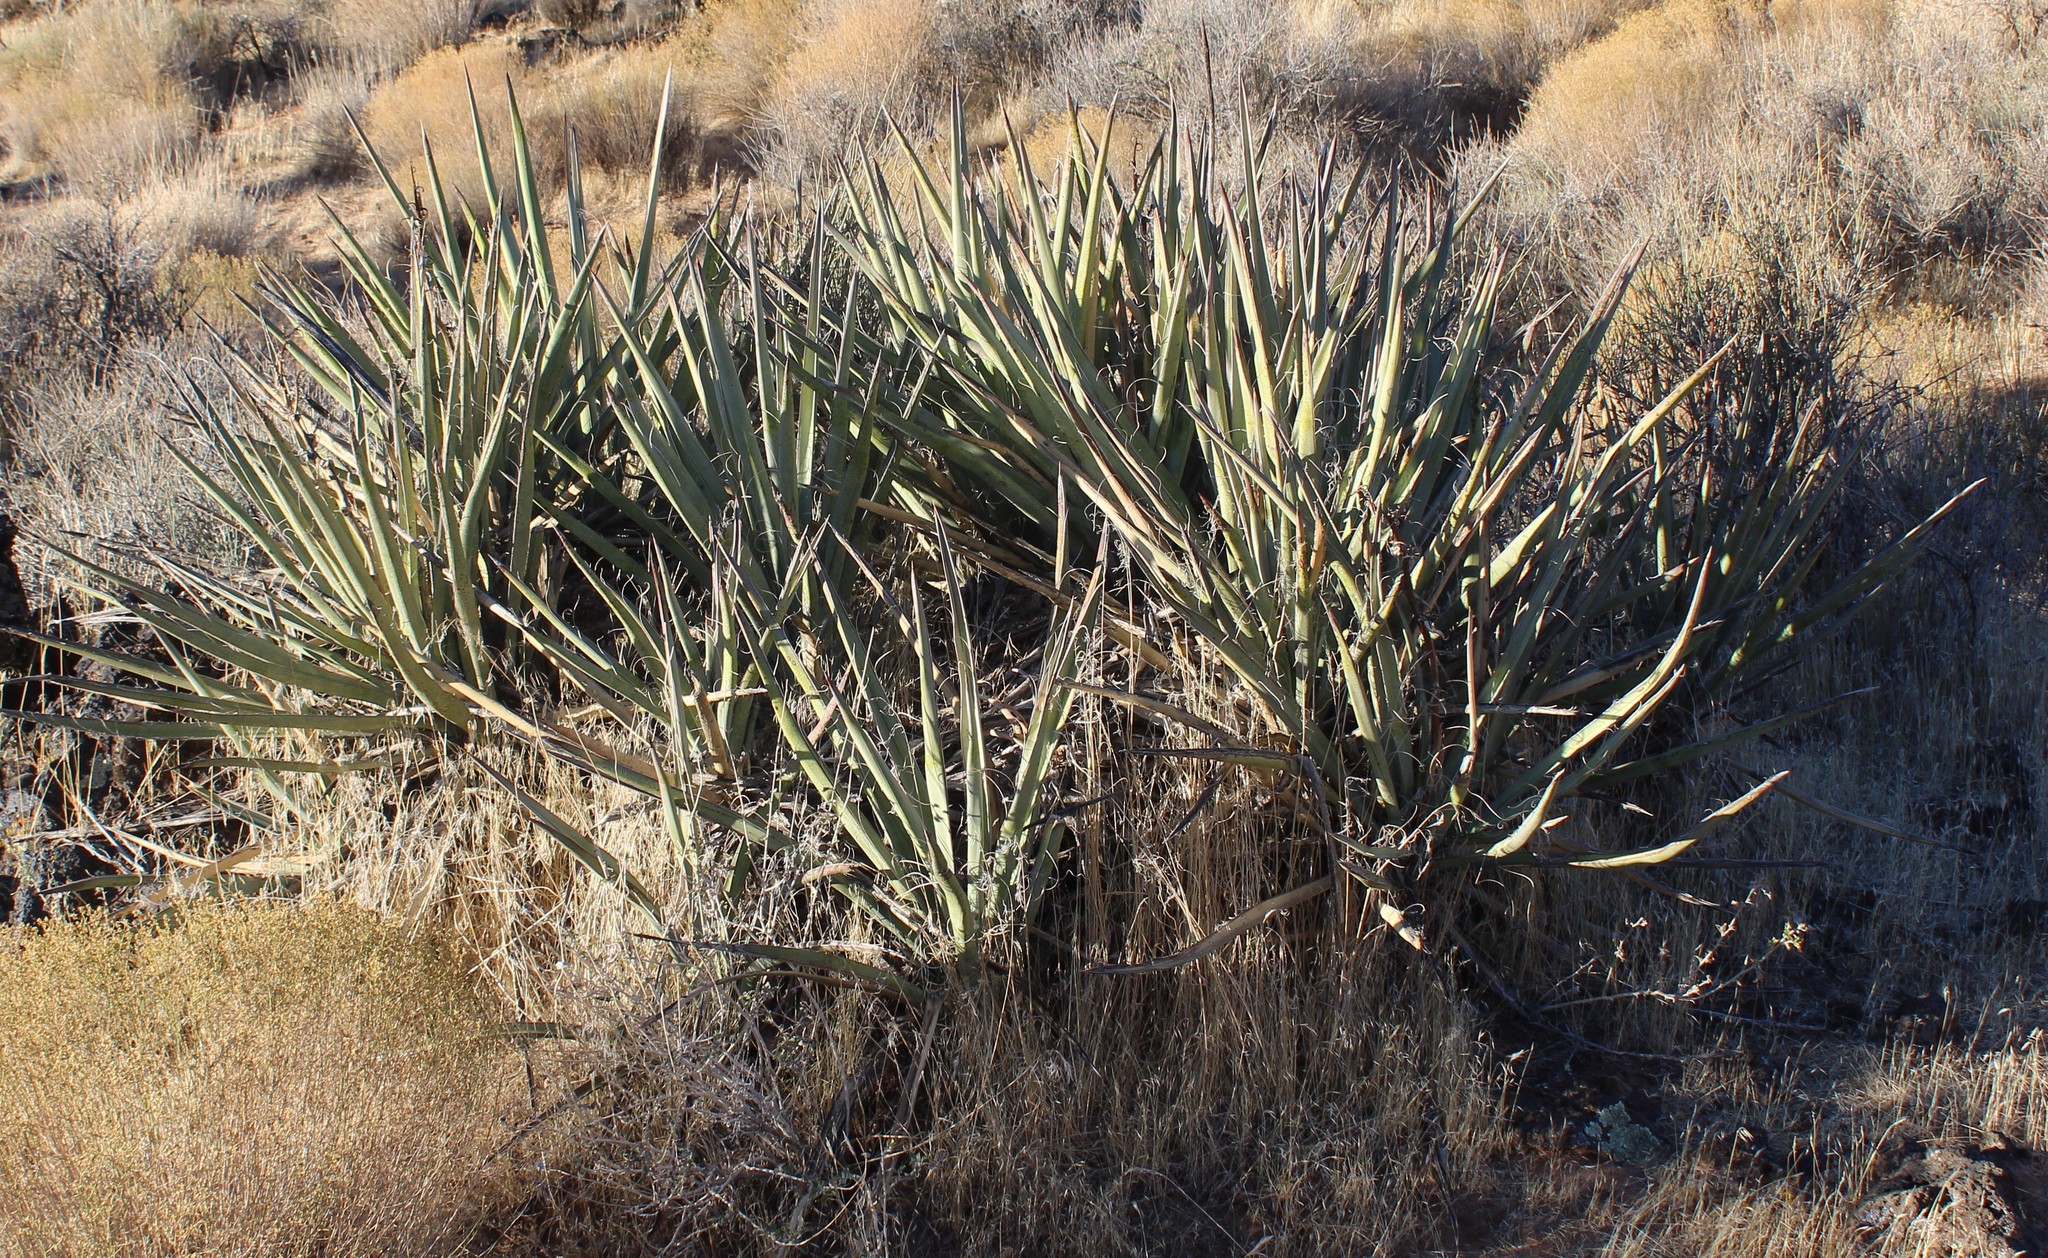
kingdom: Plantae
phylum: Tracheophyta
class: Liliopsida
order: Asparagales
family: Asparagaceae
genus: Yucca
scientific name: Yucca baccata
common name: Banana yucca
